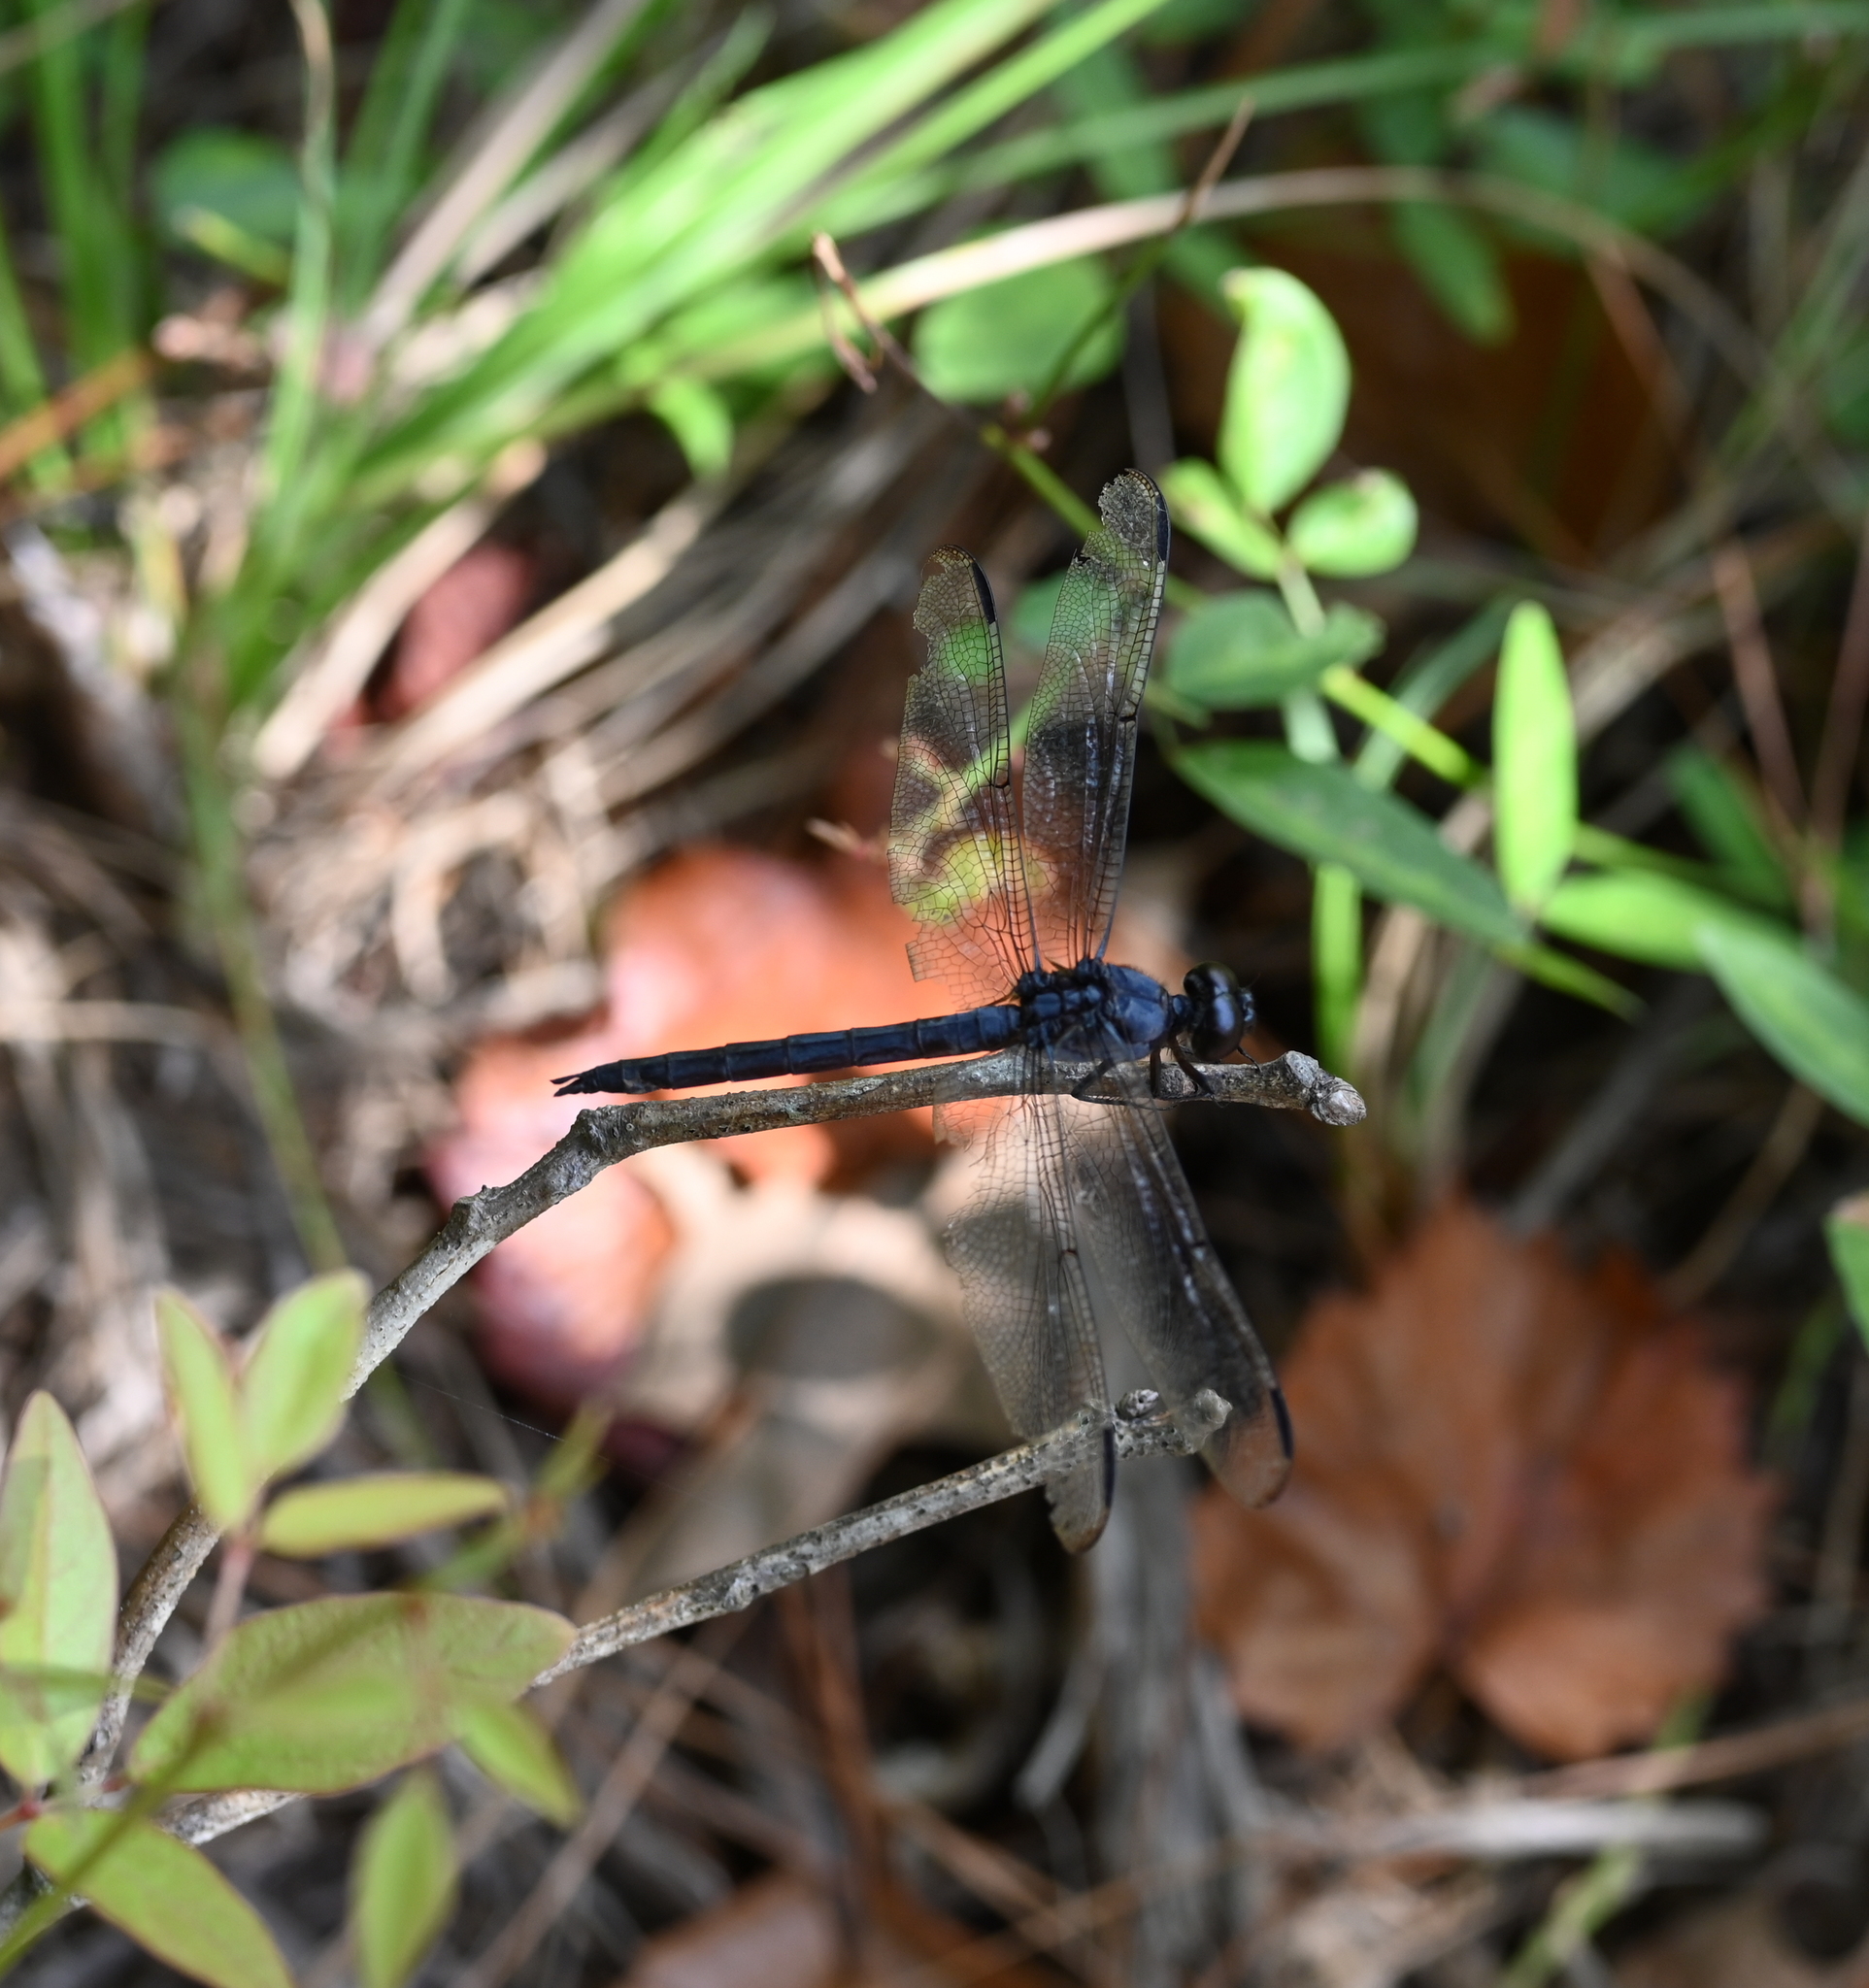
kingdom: Animalia
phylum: Arthropoda
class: Insecta
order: Odonata
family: Libellulidae
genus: Libellula
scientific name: Libellula incesta
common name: Slaty skimmer
